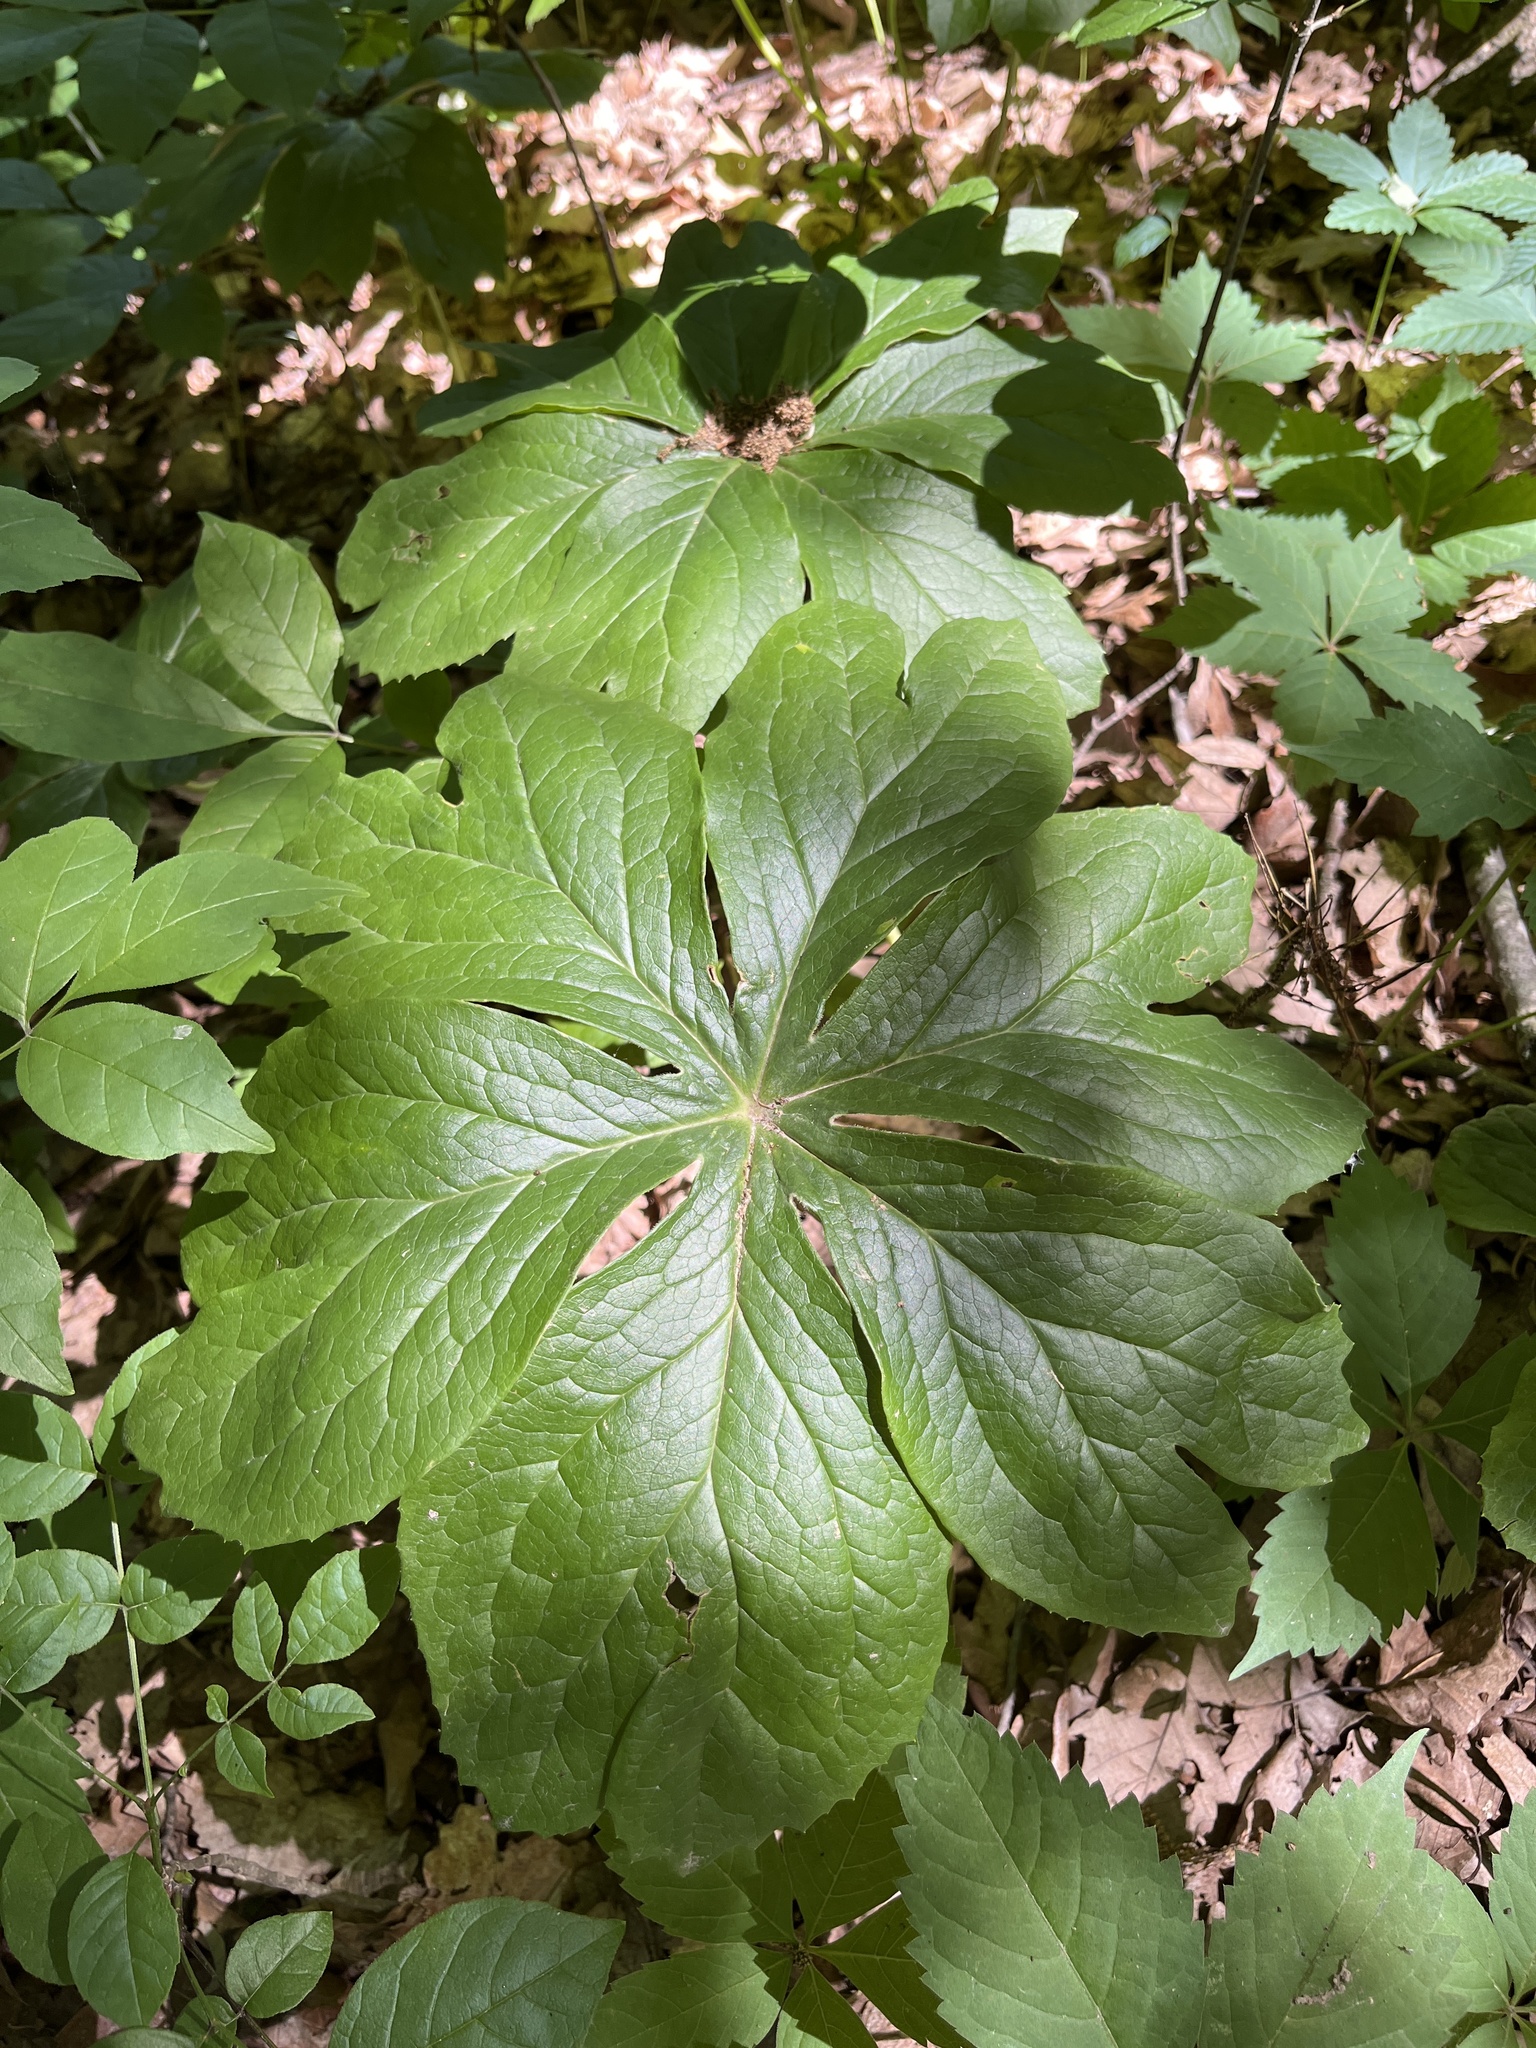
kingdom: Plantae
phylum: Tracheophyta
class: Magnoliopsida
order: Ranunculales
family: Berberidaceae
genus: Podophyllum
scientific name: Podophyllum peltatum
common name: Wild mandrake
